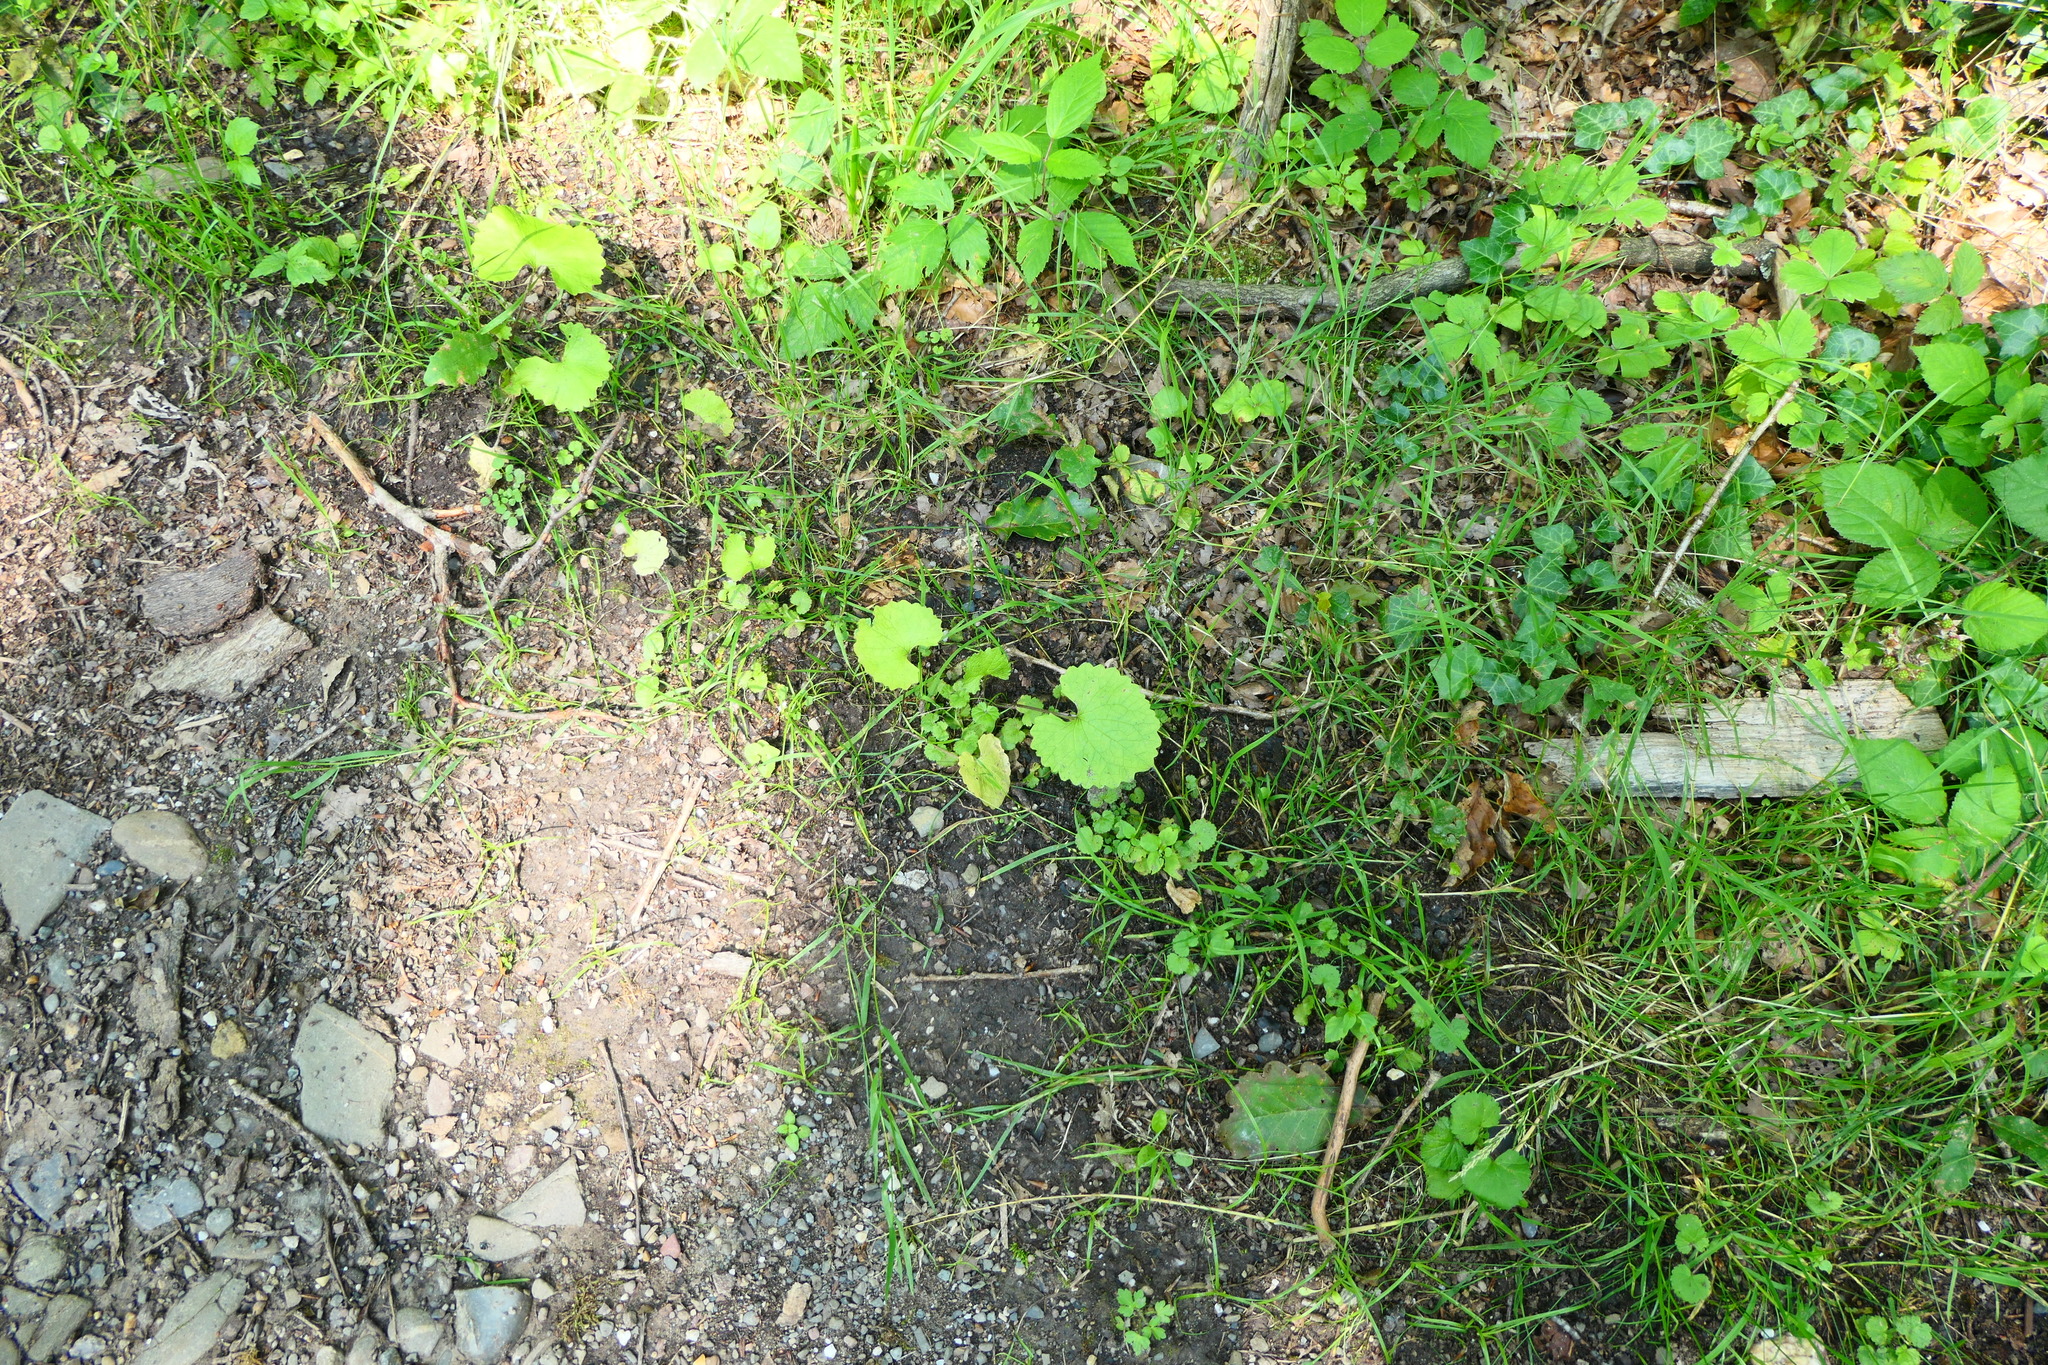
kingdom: Plantae
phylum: Tracheophyta
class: Magnoliopsida
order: Brassicales
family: Brassicaceae
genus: Alliaria
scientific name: Alliaria petiolata
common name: Garlic mustard
